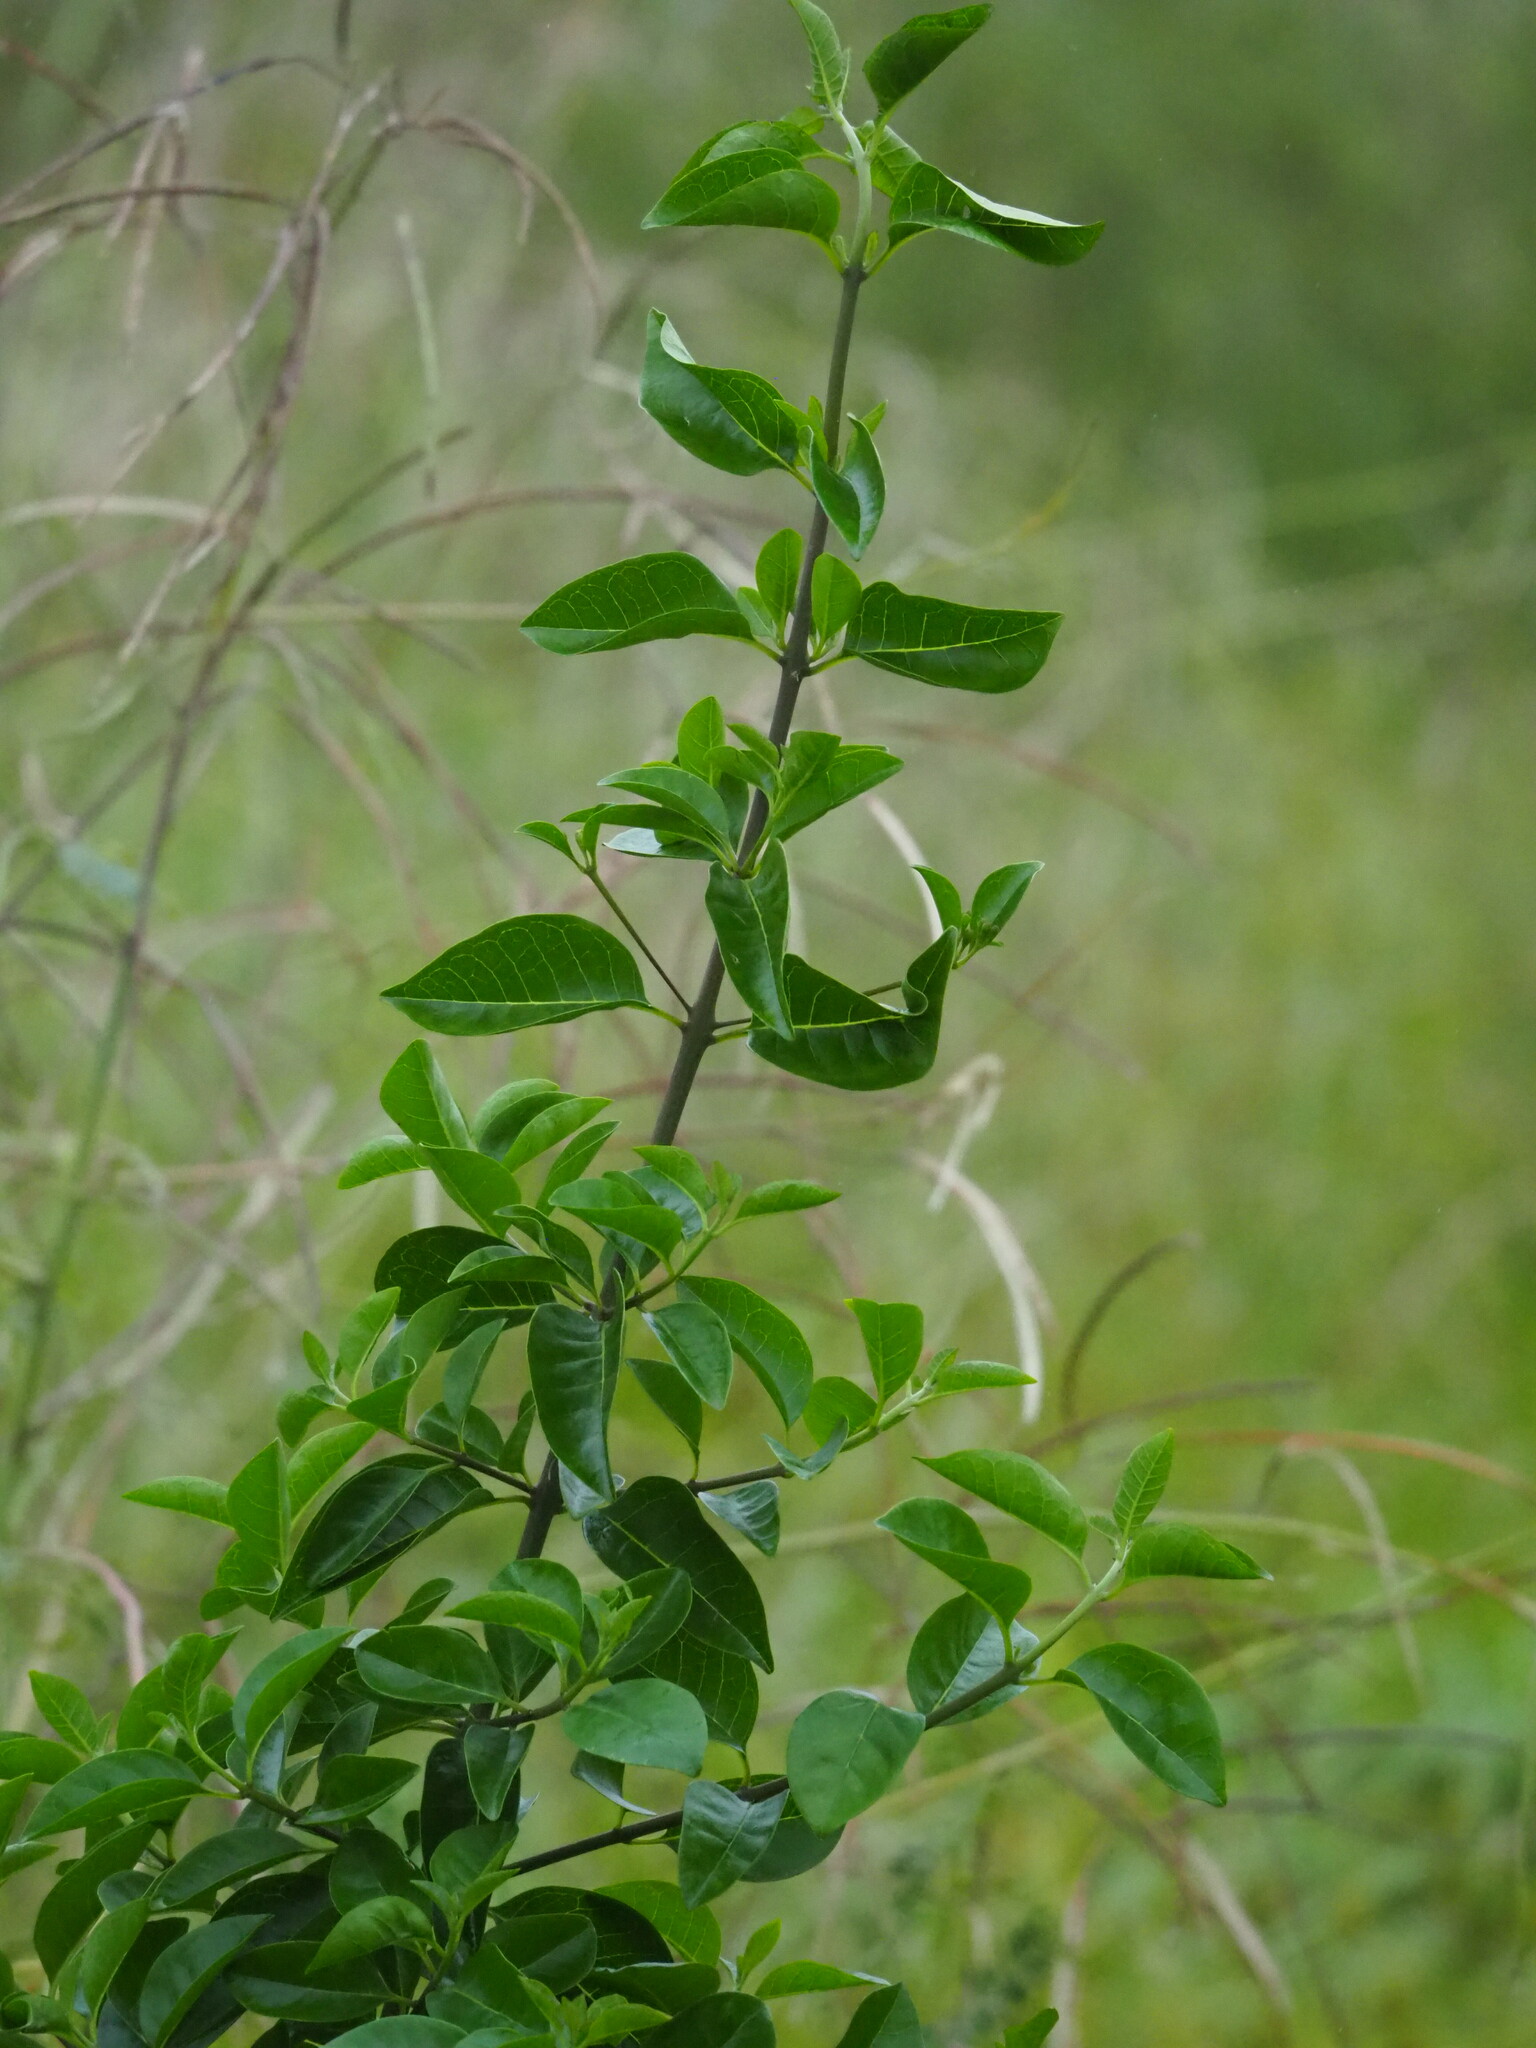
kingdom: Plantae
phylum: Tracheophyta
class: Magnoliopsida
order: Lamiales
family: Lamiaceae
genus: Volkameria
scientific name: Volkameria inermis
